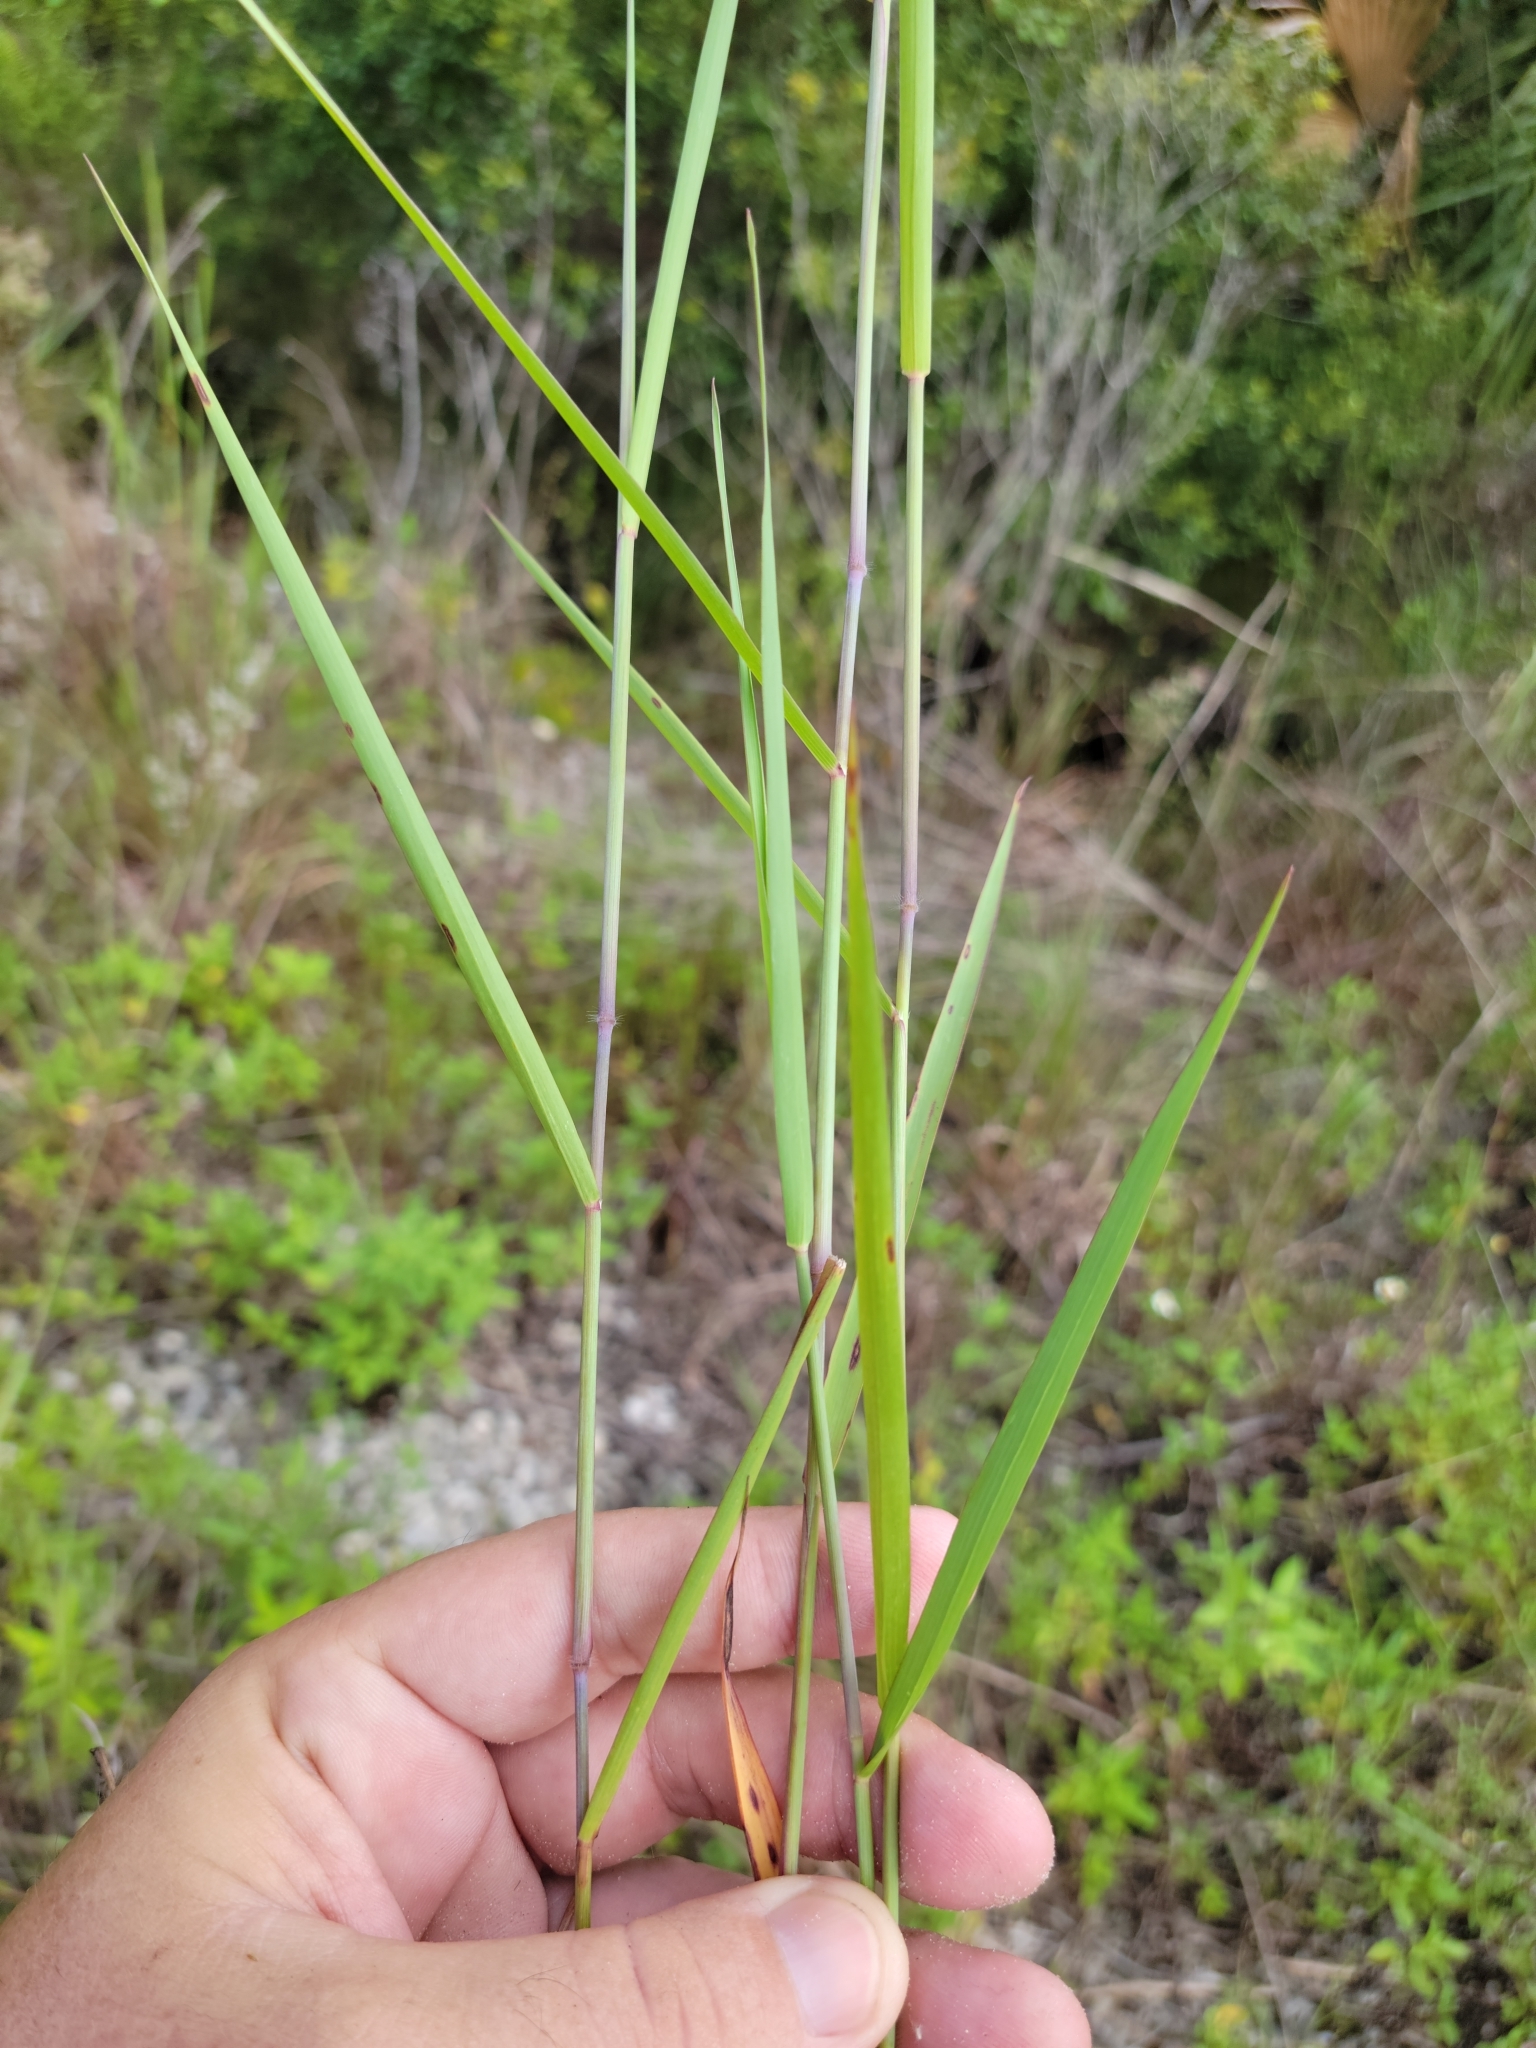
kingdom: Plantae
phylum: Tracheophyta
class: Liliopsida
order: Poales
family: Poaceae
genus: Melinis
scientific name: Melinis repens
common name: Rose natal grass
